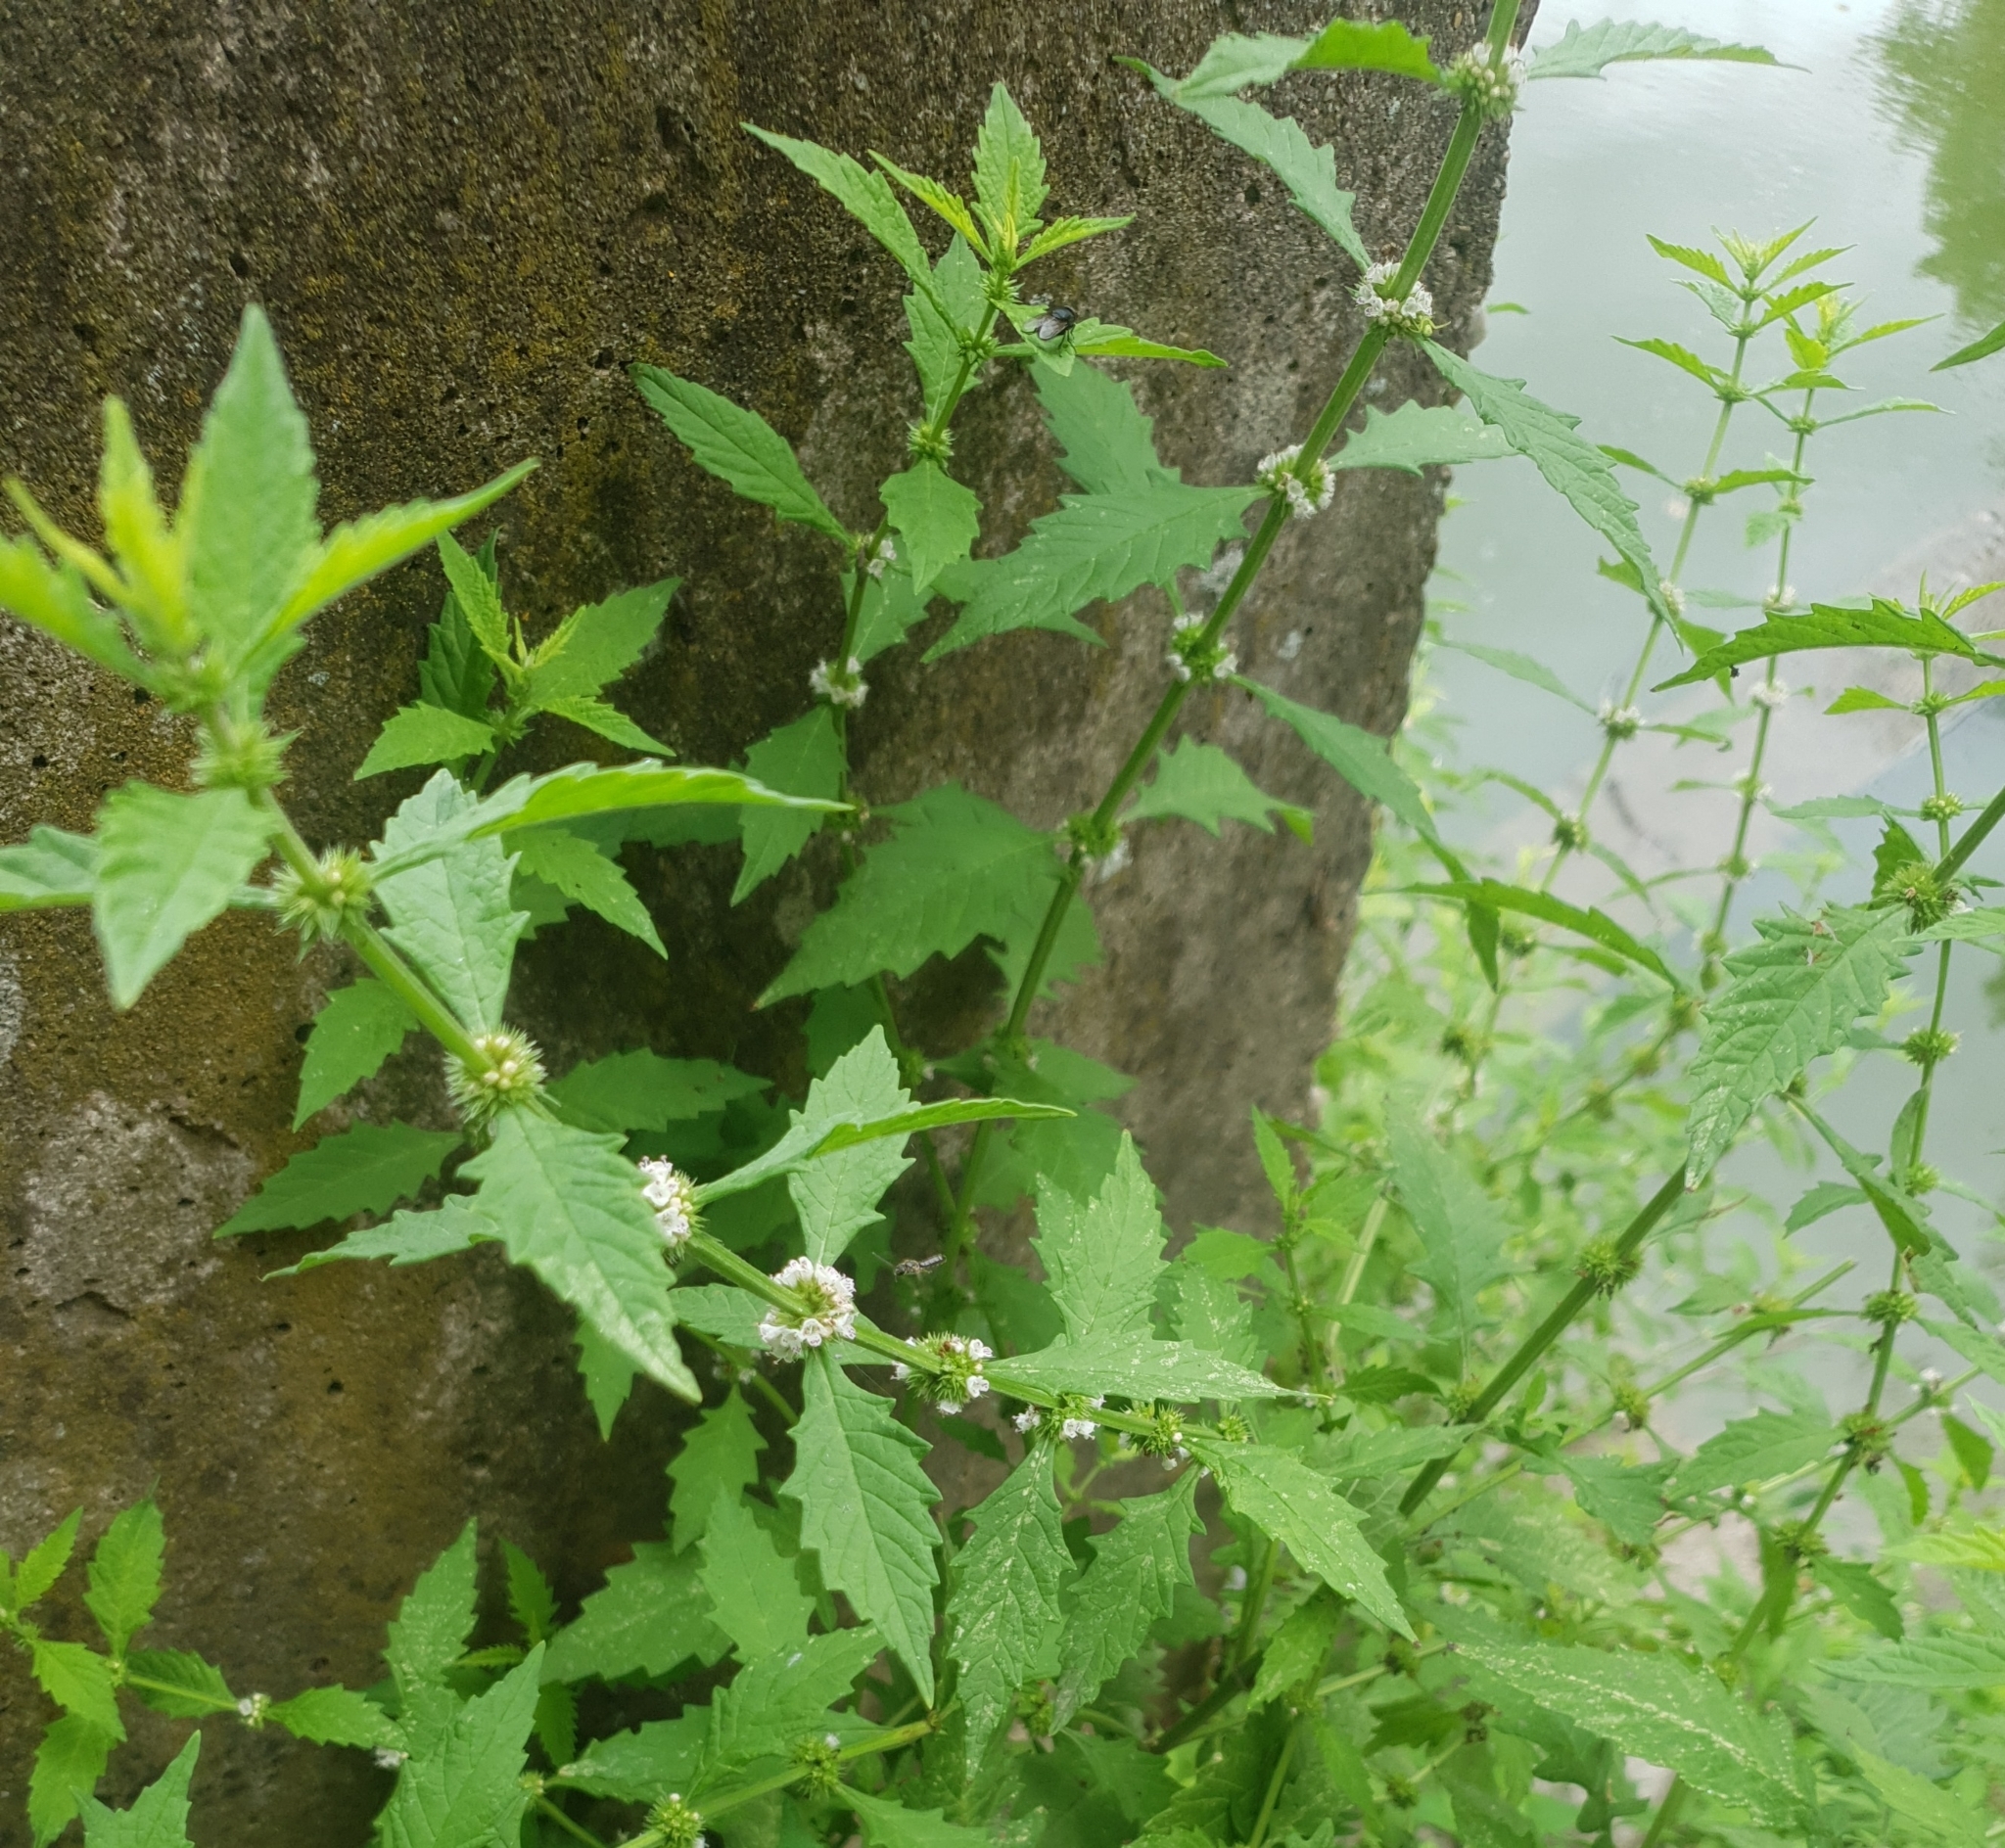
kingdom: Plantae
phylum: Tracheophyta
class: Magnoliopsida
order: Lamiales
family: Lamiaceae
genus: Lycopus
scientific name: Lycopus europaeus
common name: European bugleweed
